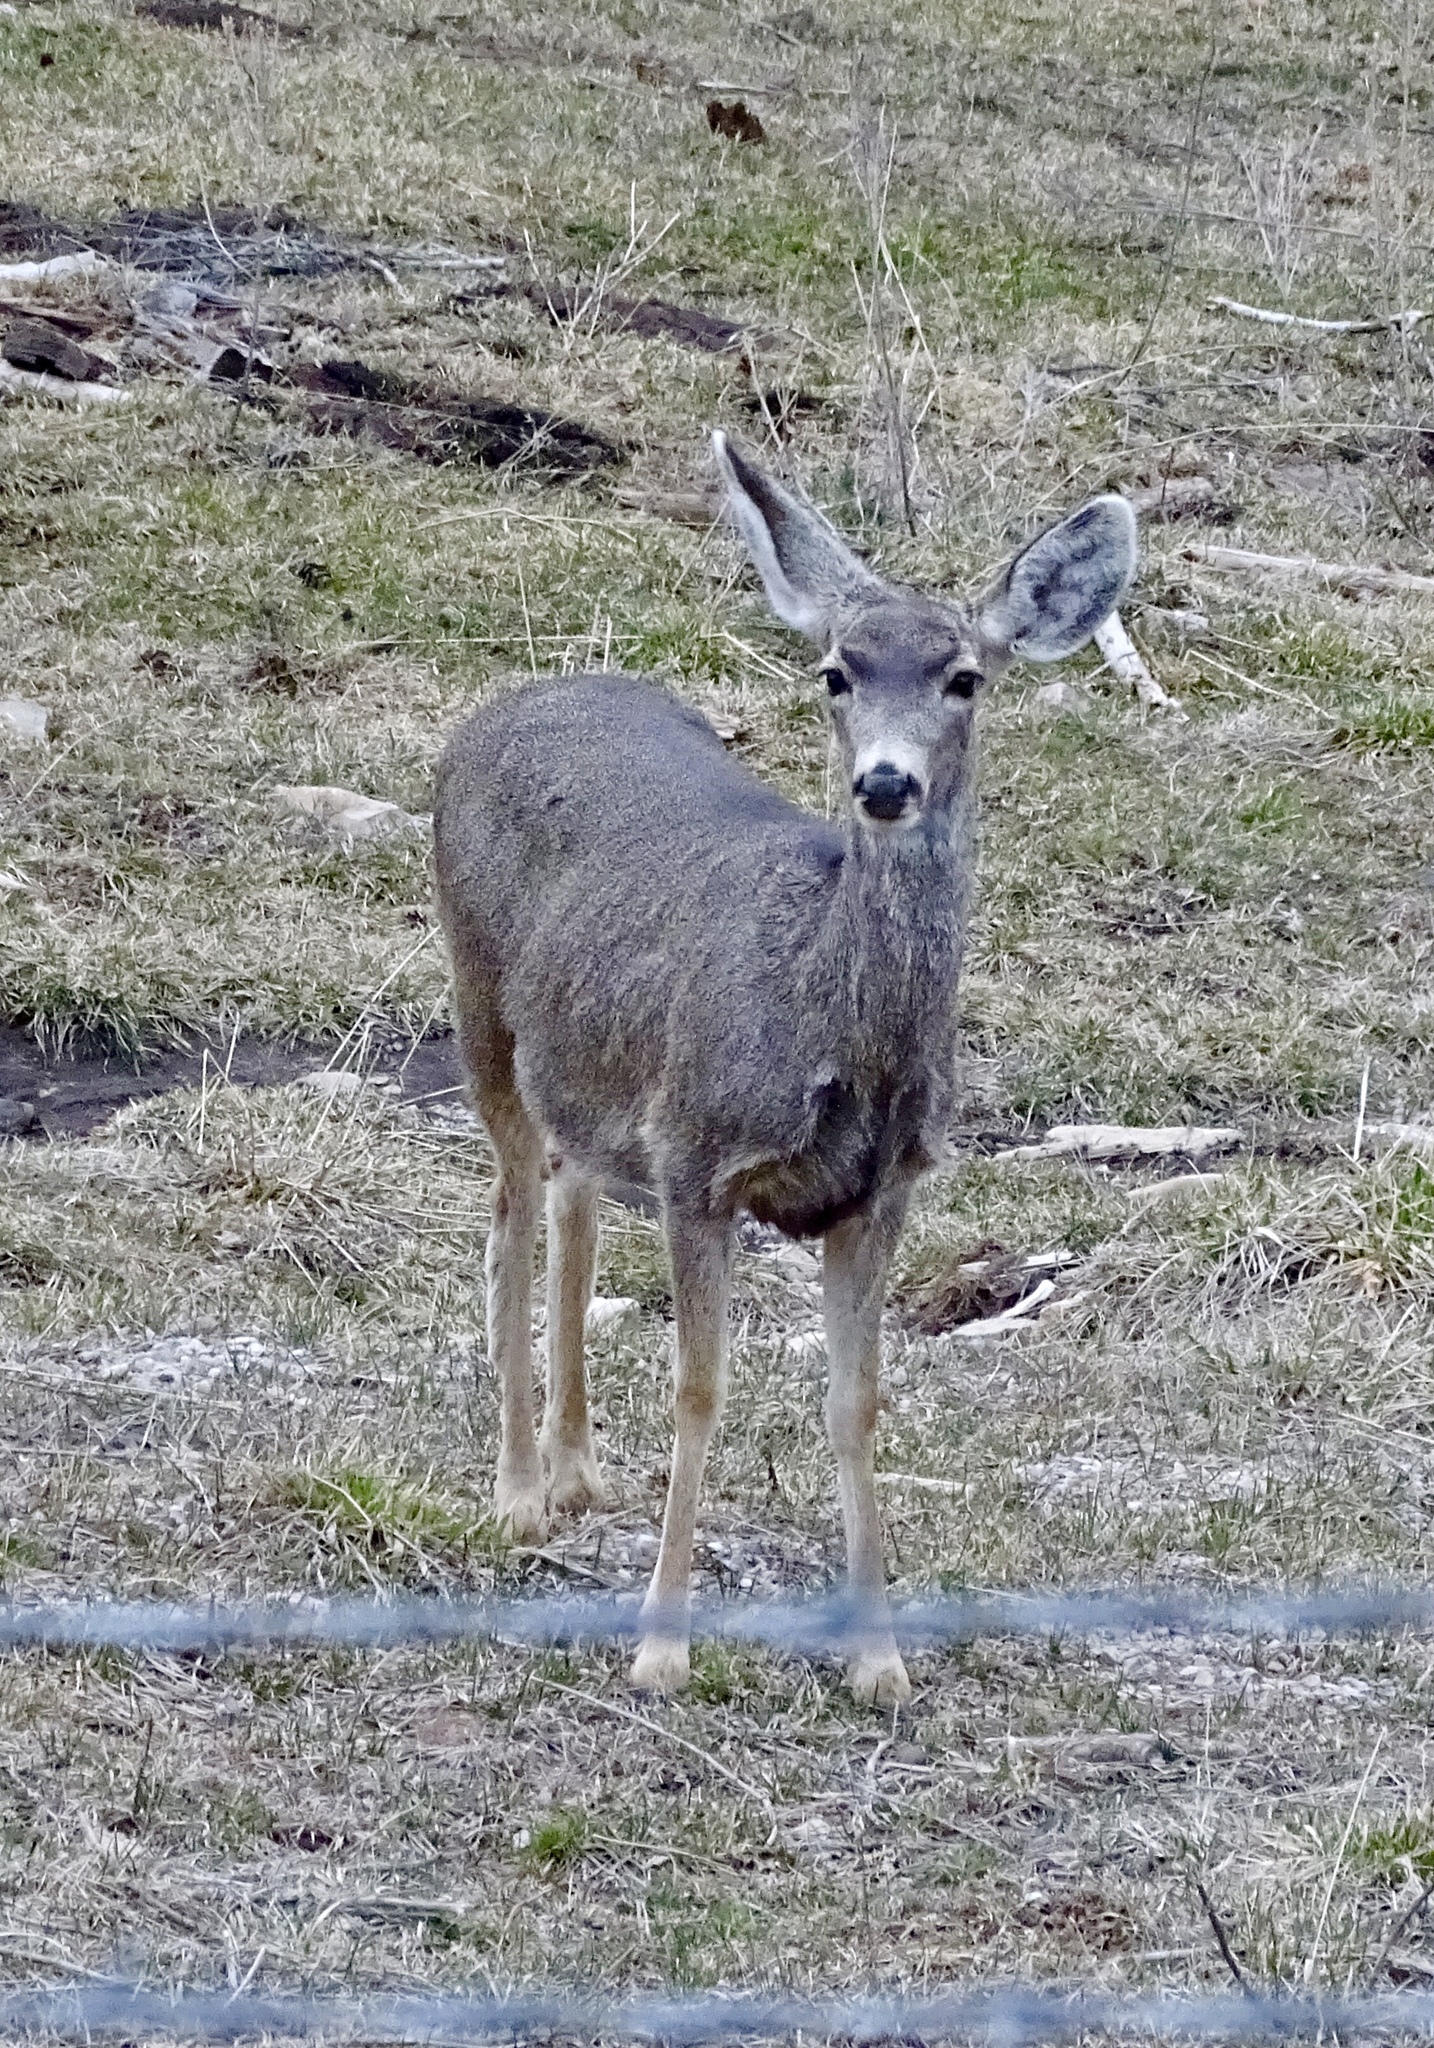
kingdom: Animalia
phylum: Chordata
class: Mammalia
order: Artiodactyla
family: Cervidae
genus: Odocoileus
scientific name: Odocoileus hemionus
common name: Mule deer
